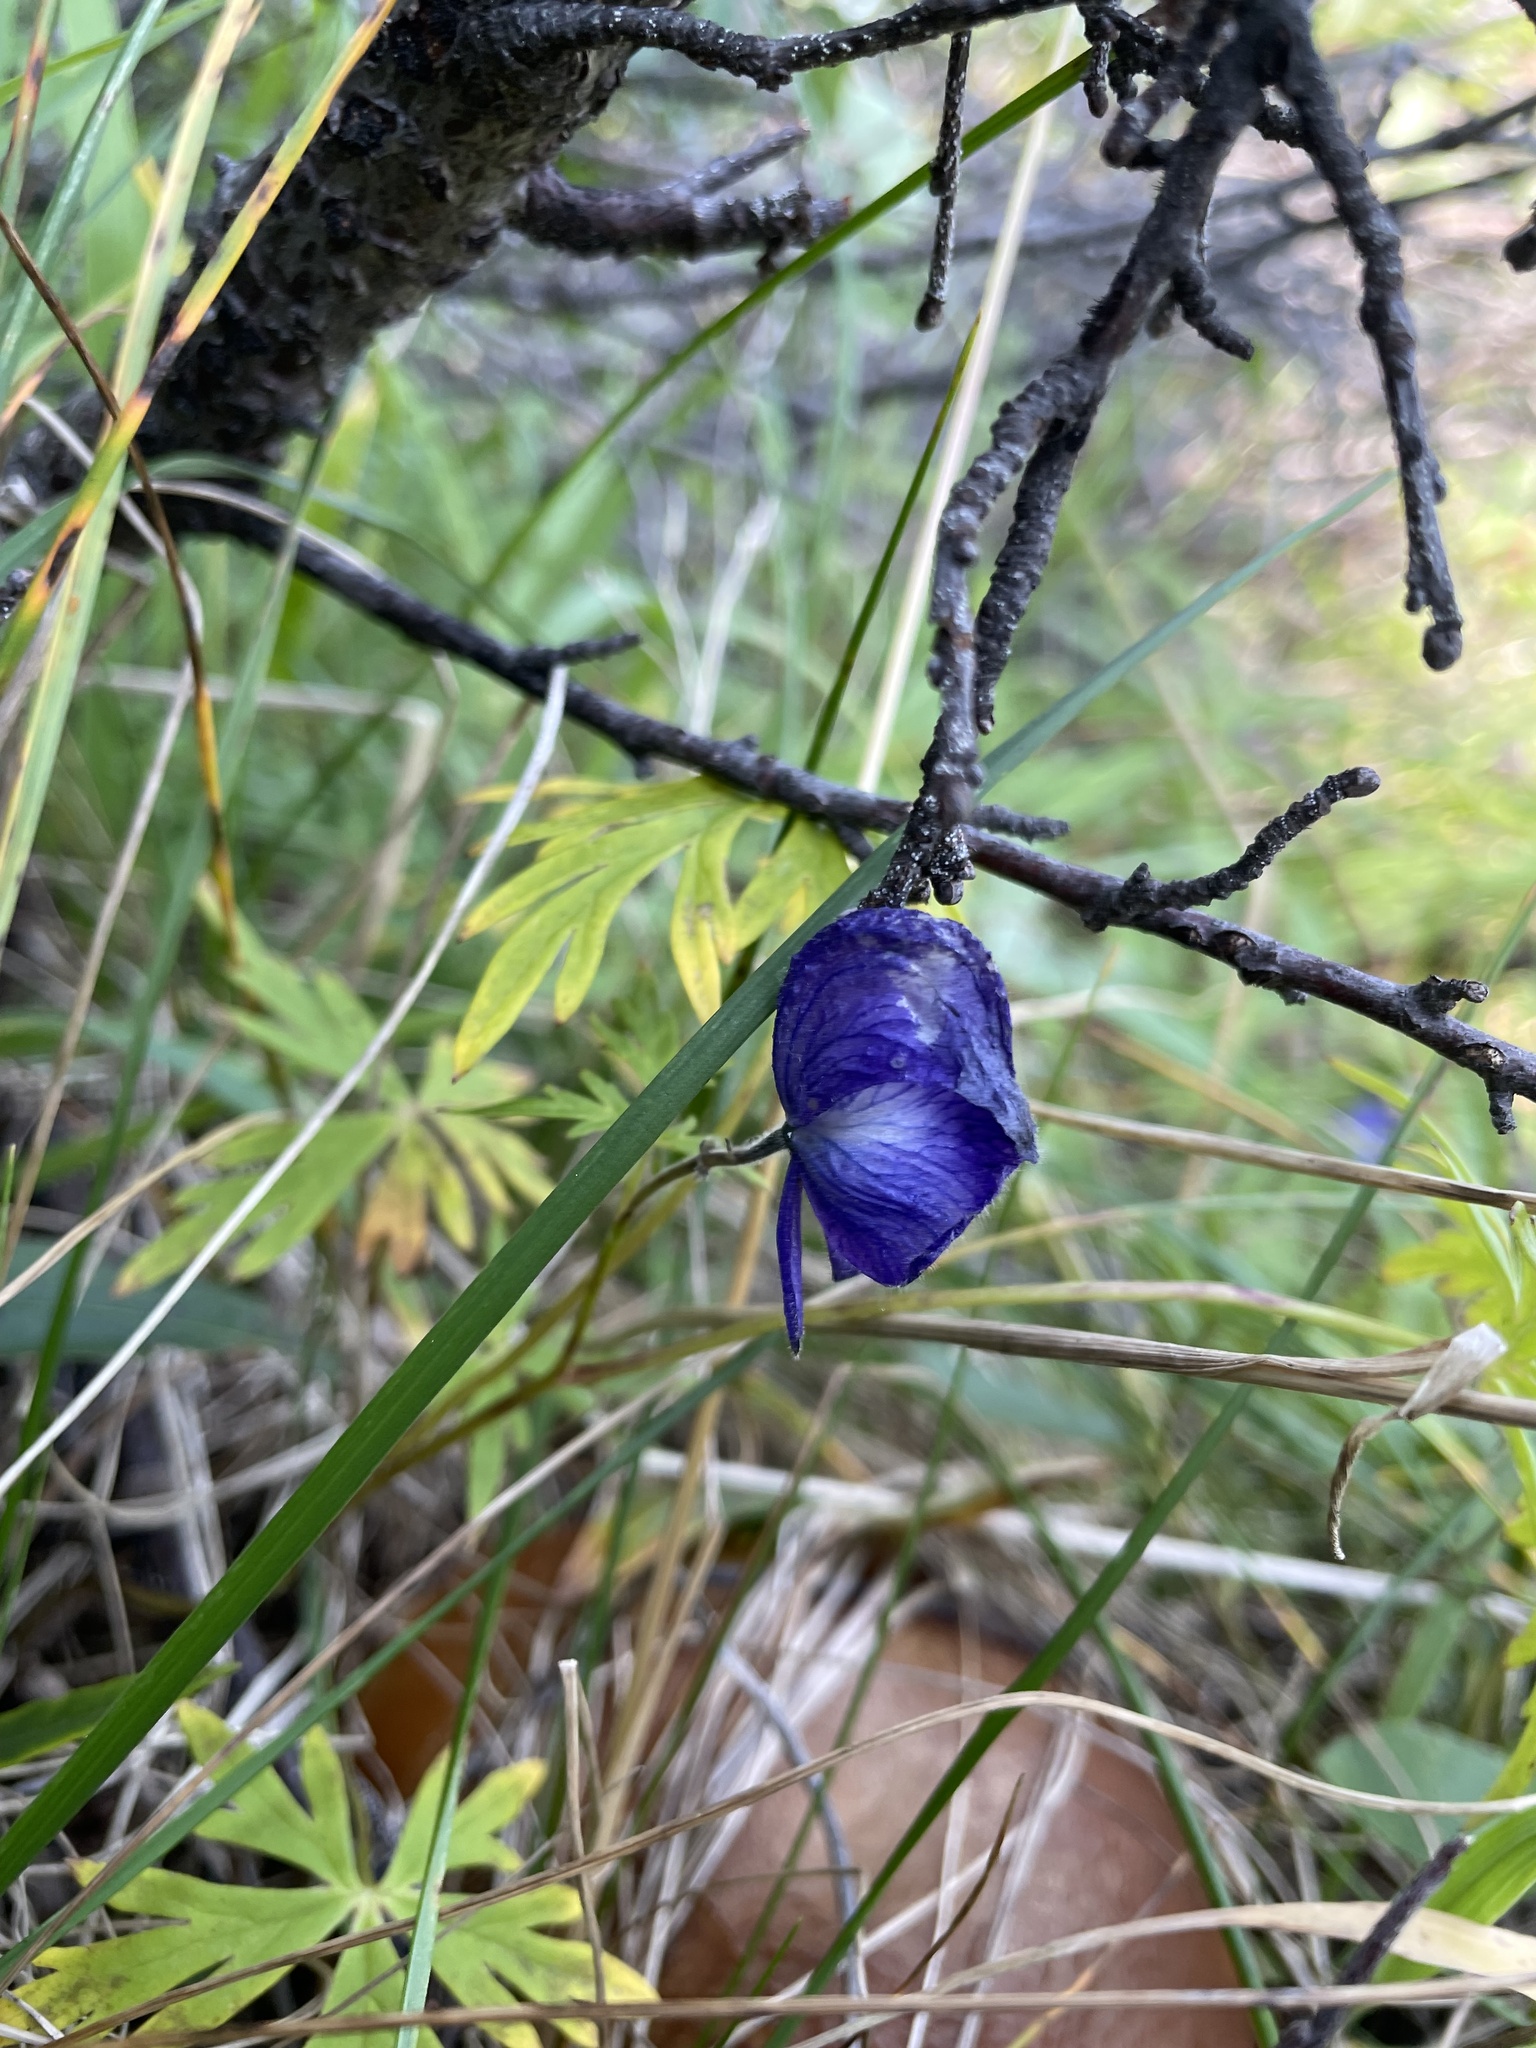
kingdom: Plantae
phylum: Tracheophyta
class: Magnoliopsida
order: Ranunculales
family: Ranunculaceae
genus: Aconitum
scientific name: Aconitum delphiniifolium
